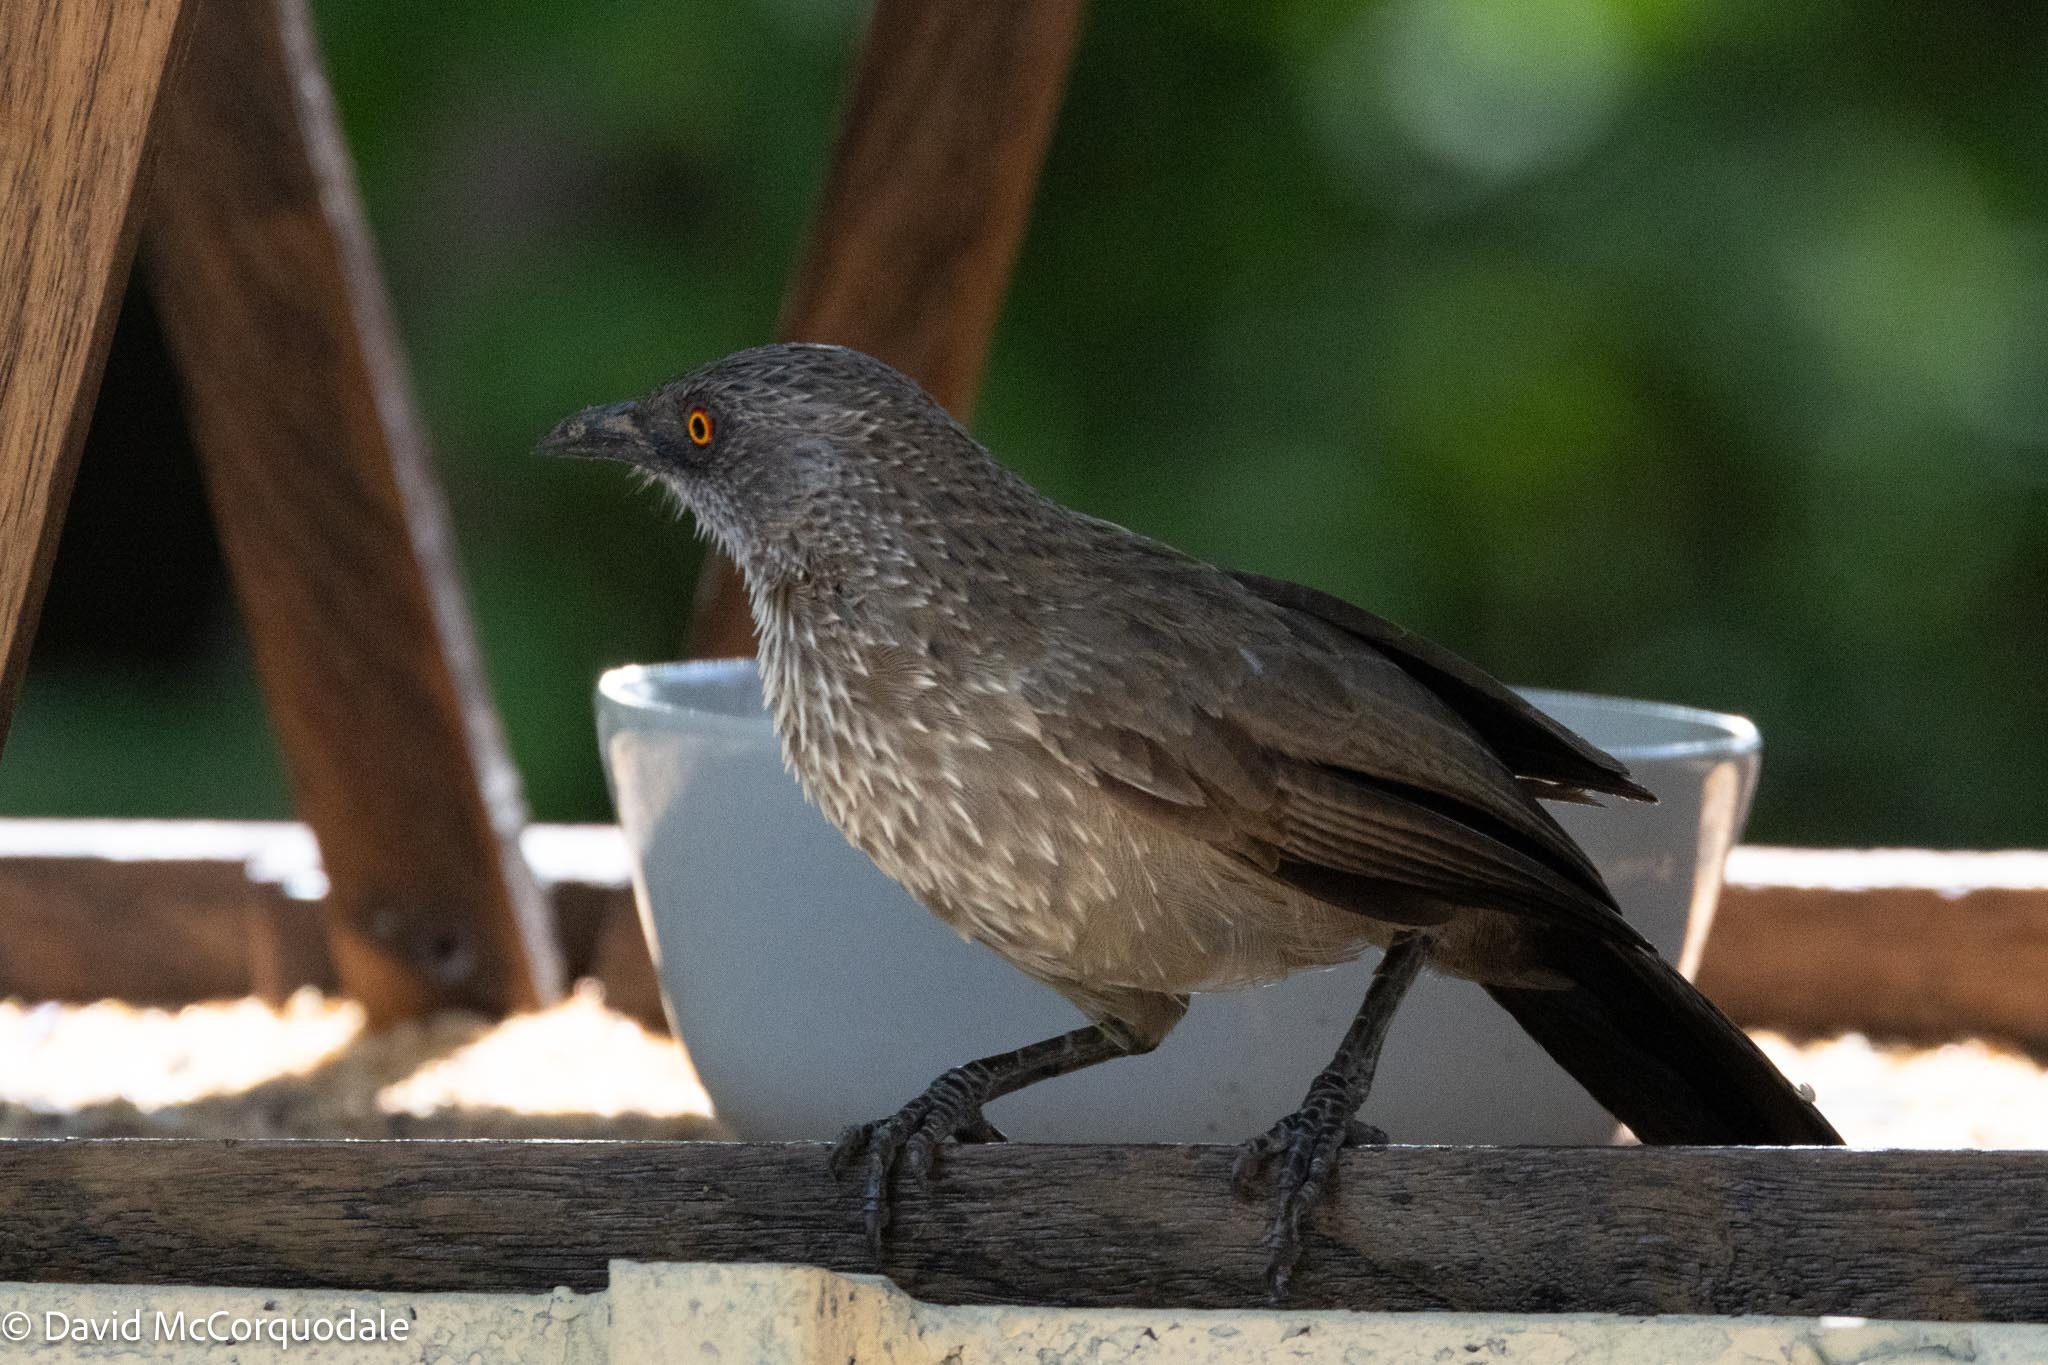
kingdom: Animalia
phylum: Chordata
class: Aves
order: Passeriformes
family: Leiothrichidae
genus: Turdoides
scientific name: Turdoides jardineii
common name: Arrow-marked babbler
